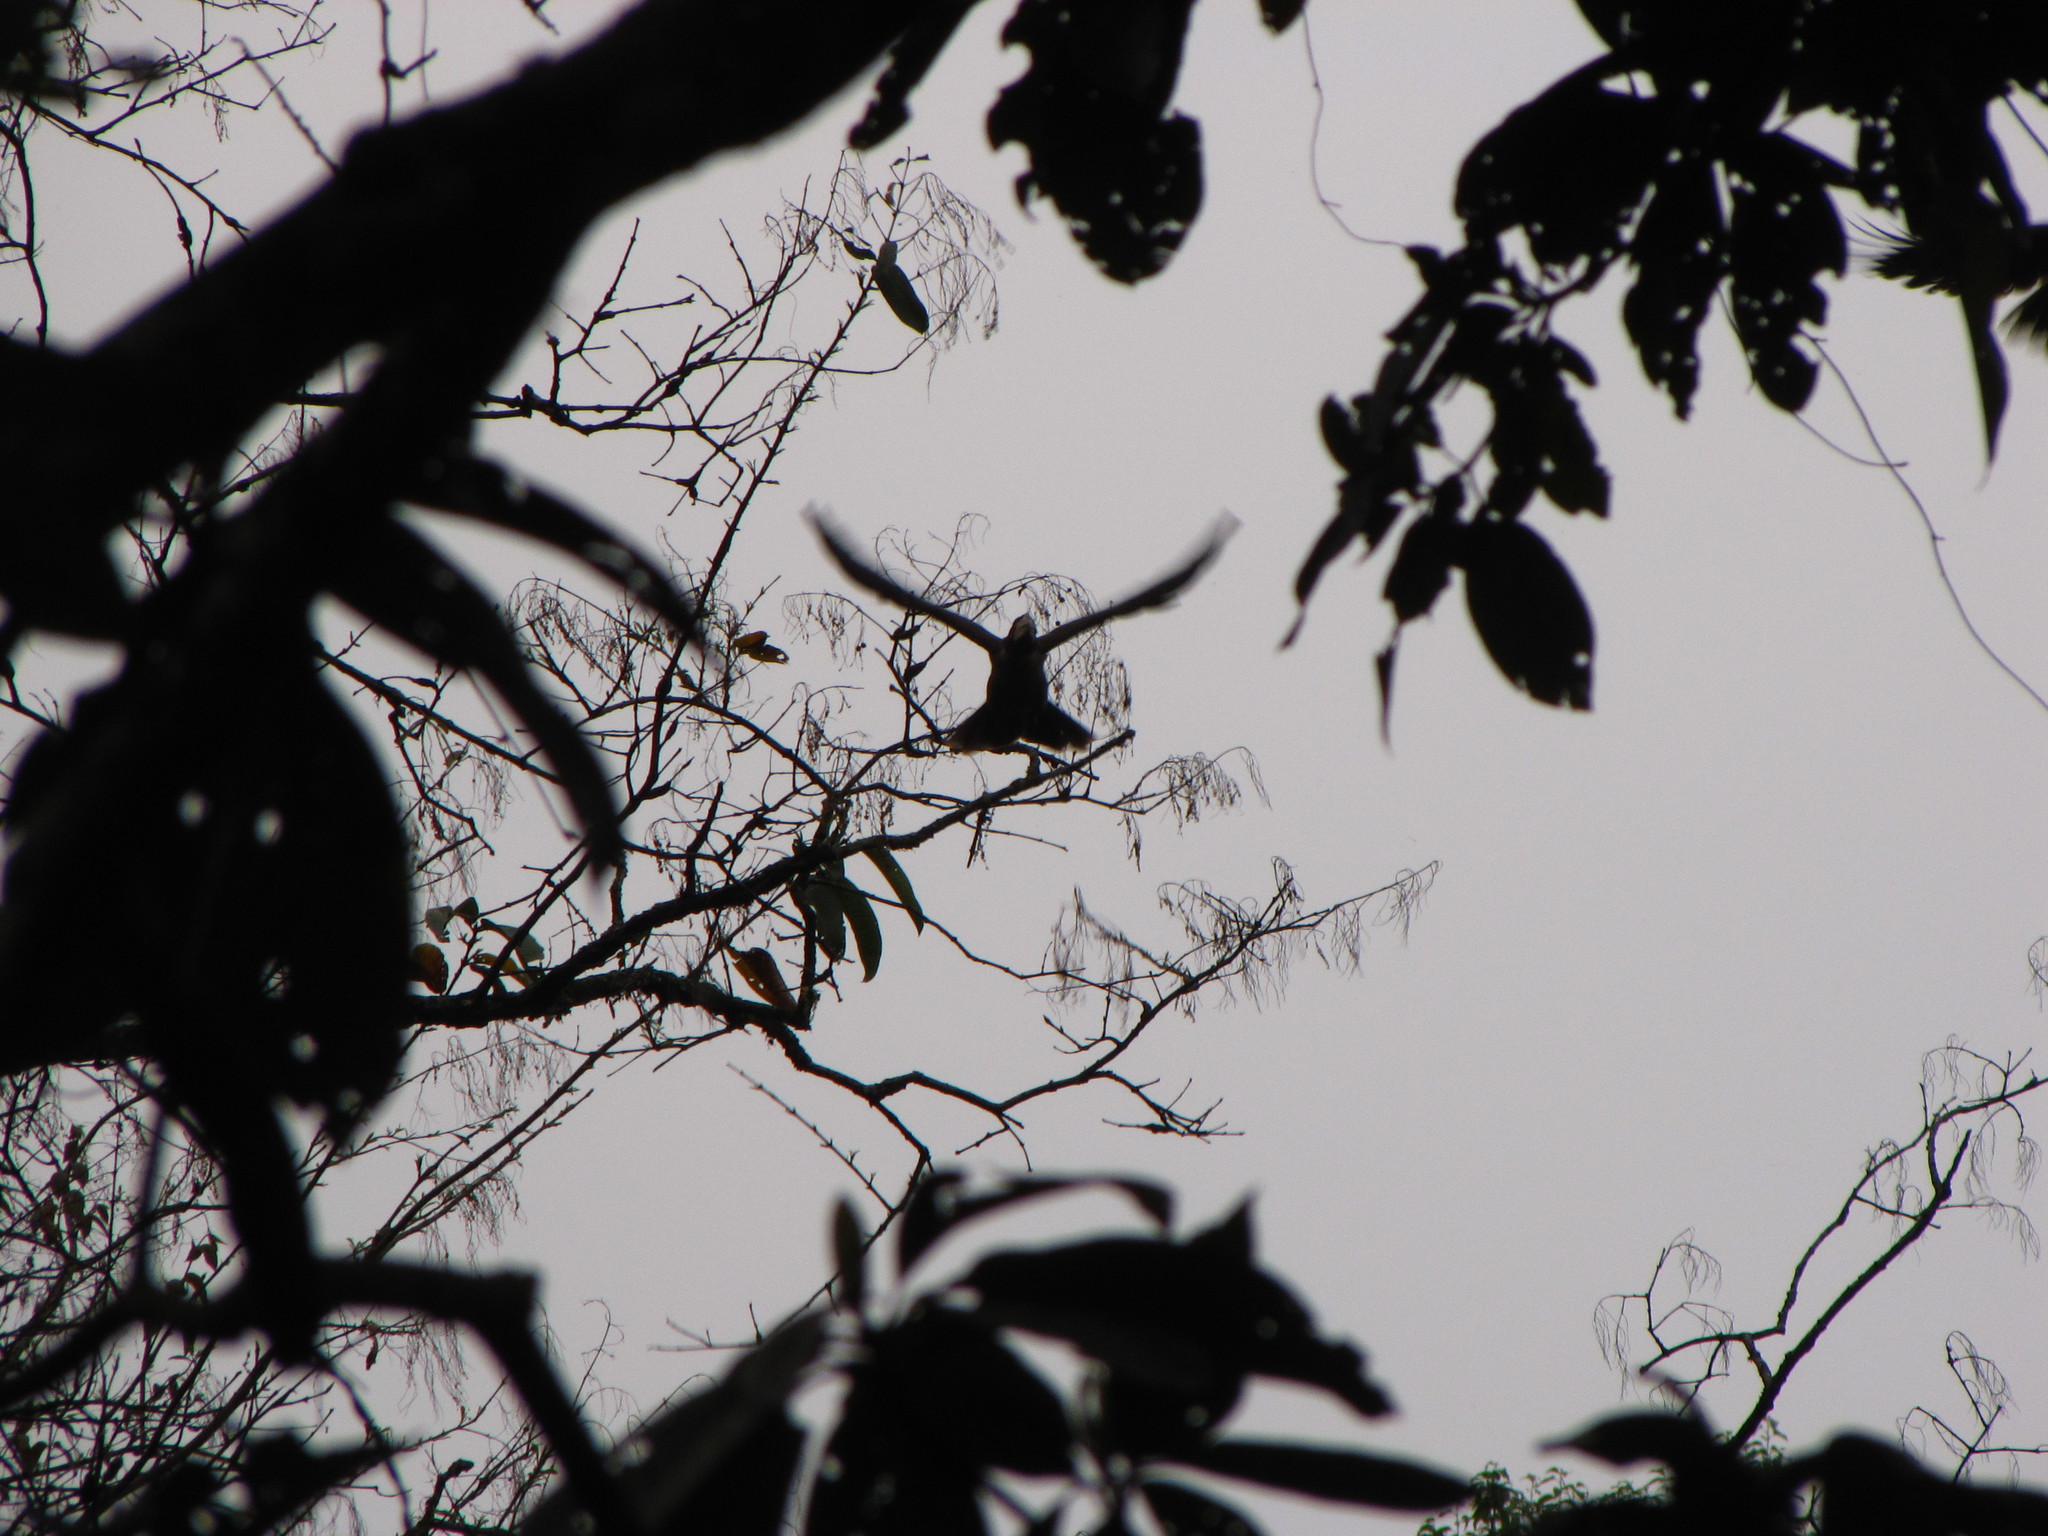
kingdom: Animalia
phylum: Chordata
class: Aves
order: Bucerotiformes
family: Bucerotidae
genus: Anorrhinus
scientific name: Anorrhinus austeni
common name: Austen's brown hornbill
